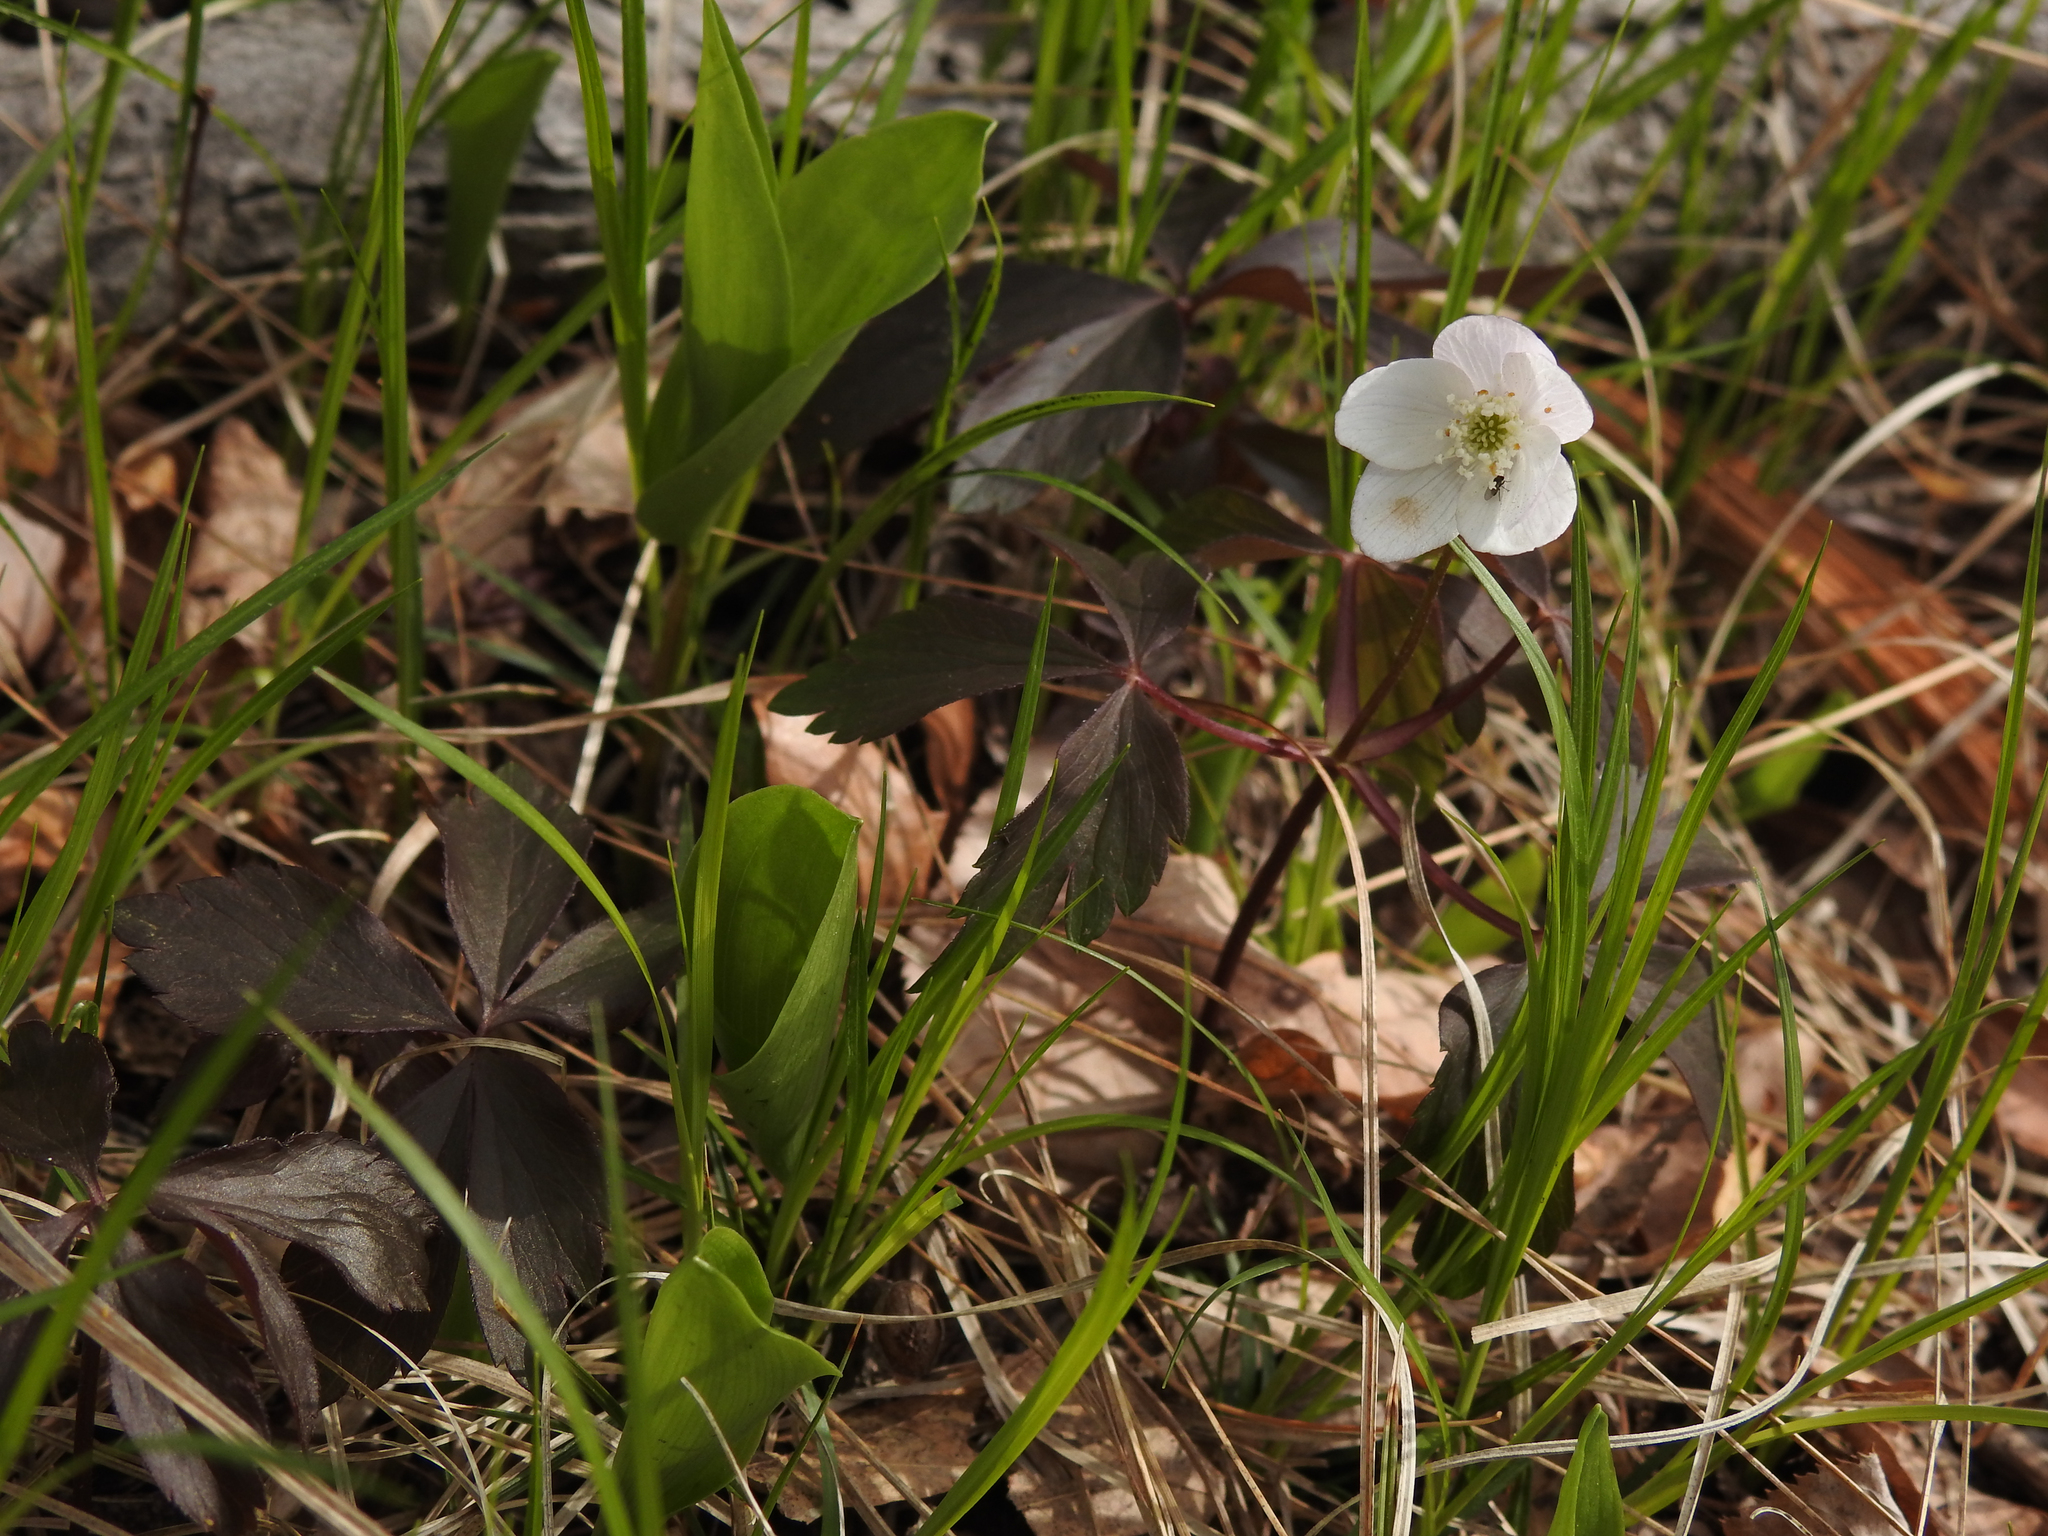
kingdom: Plantae
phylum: Tracheophyta
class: Magnoliopsida
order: Ranunculales
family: Ranunculaceae
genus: Anemone
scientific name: Anemone quinquefolia
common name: Wood anemone
